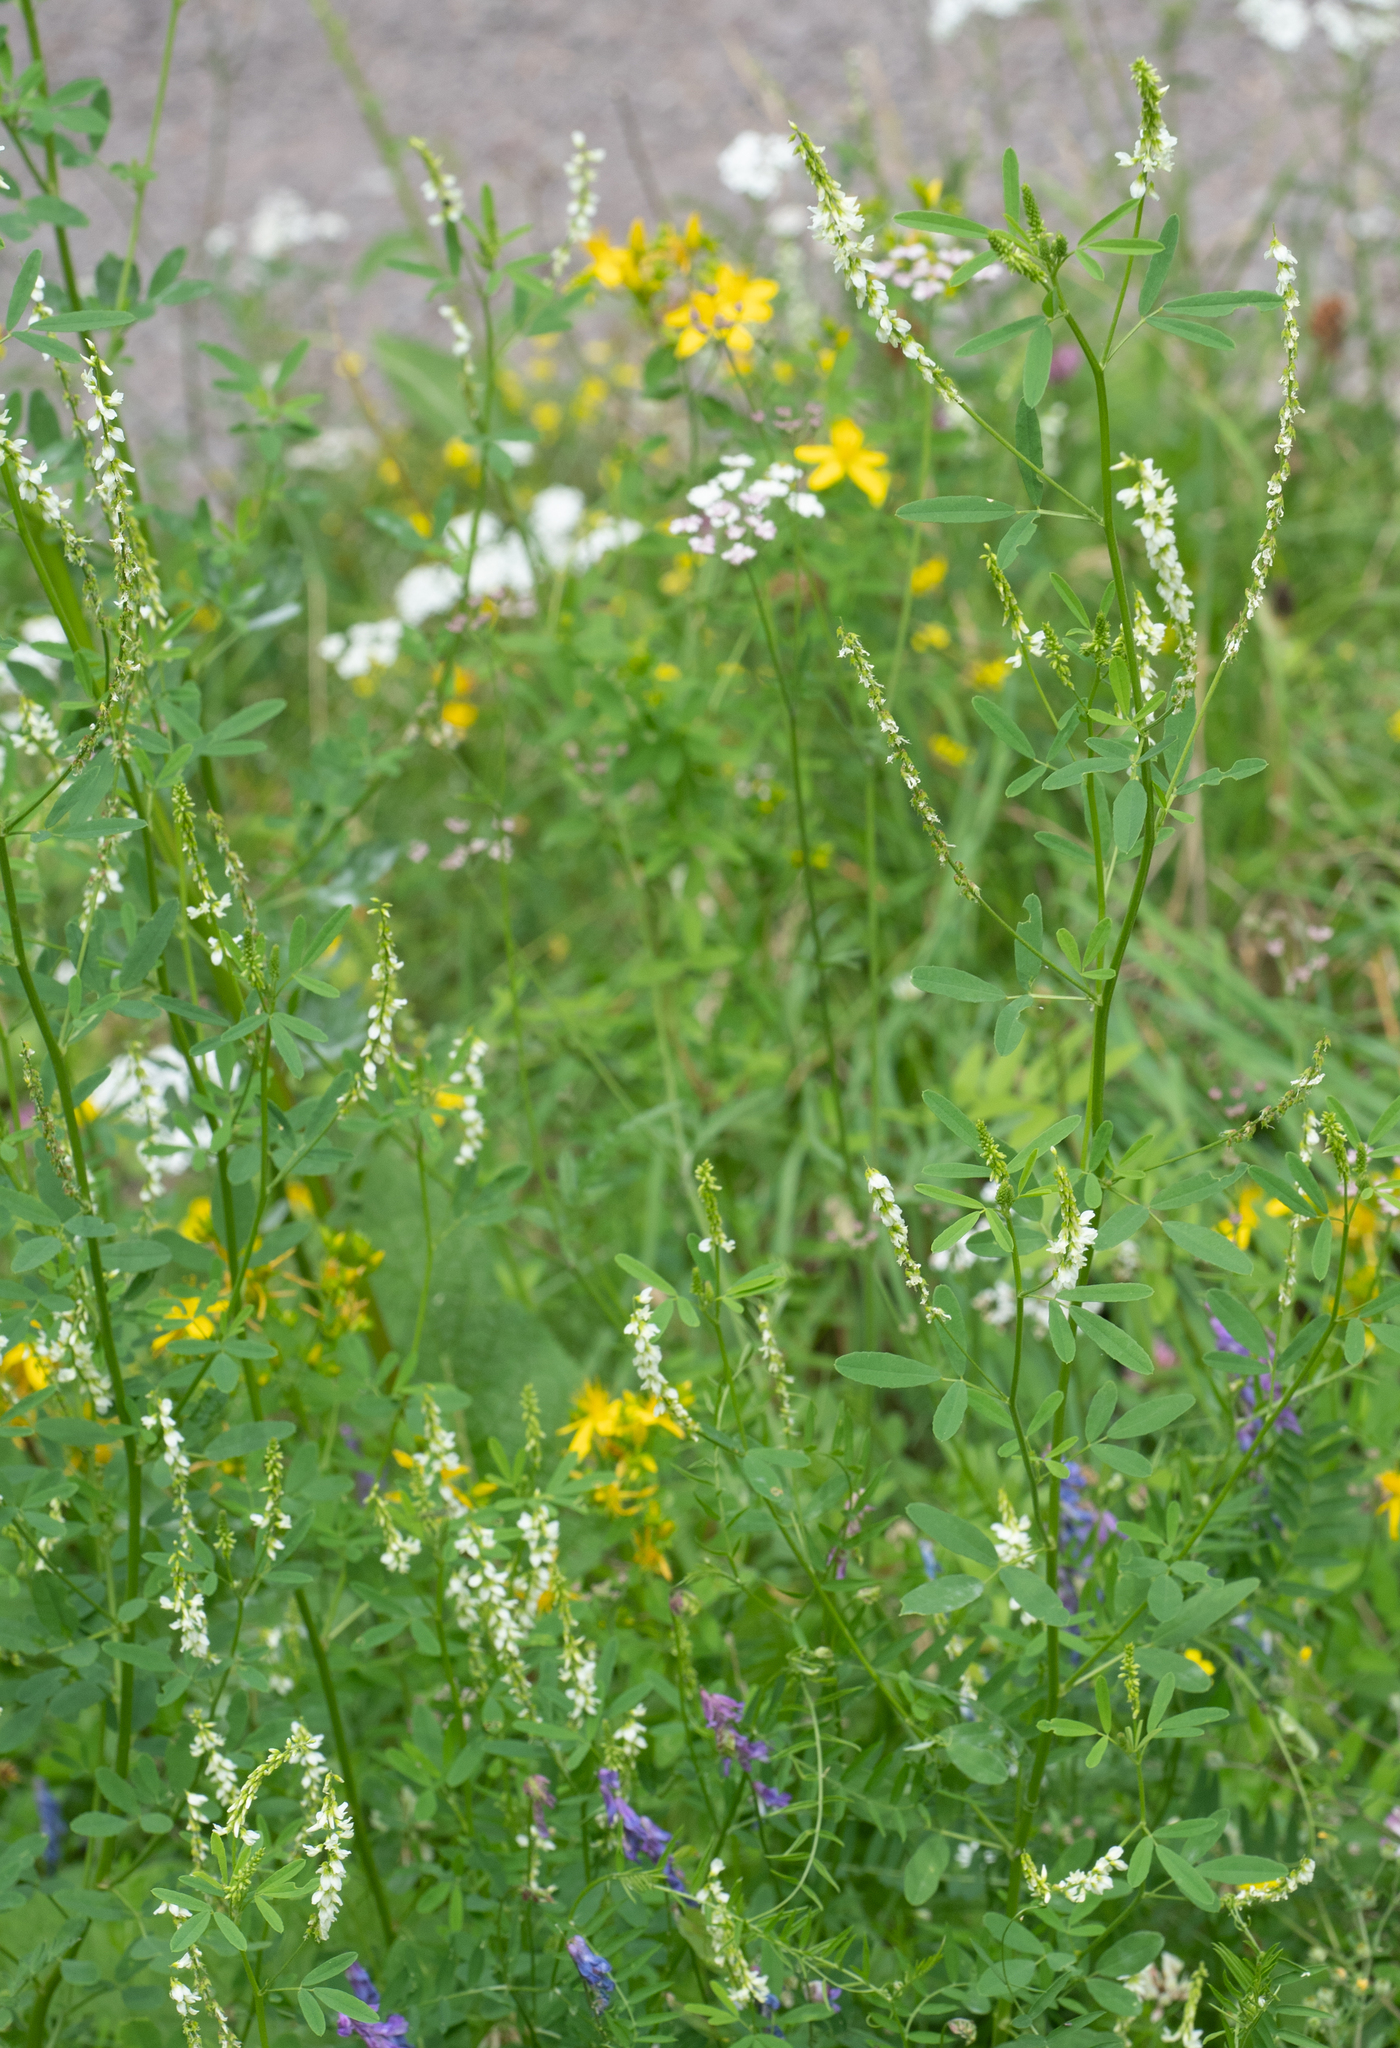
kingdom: Plantae
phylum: Tracheophyta
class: Magnoliopsida
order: Fabales
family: Fabaceae
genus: Melilotus
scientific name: Melilotus albus
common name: White melilot
